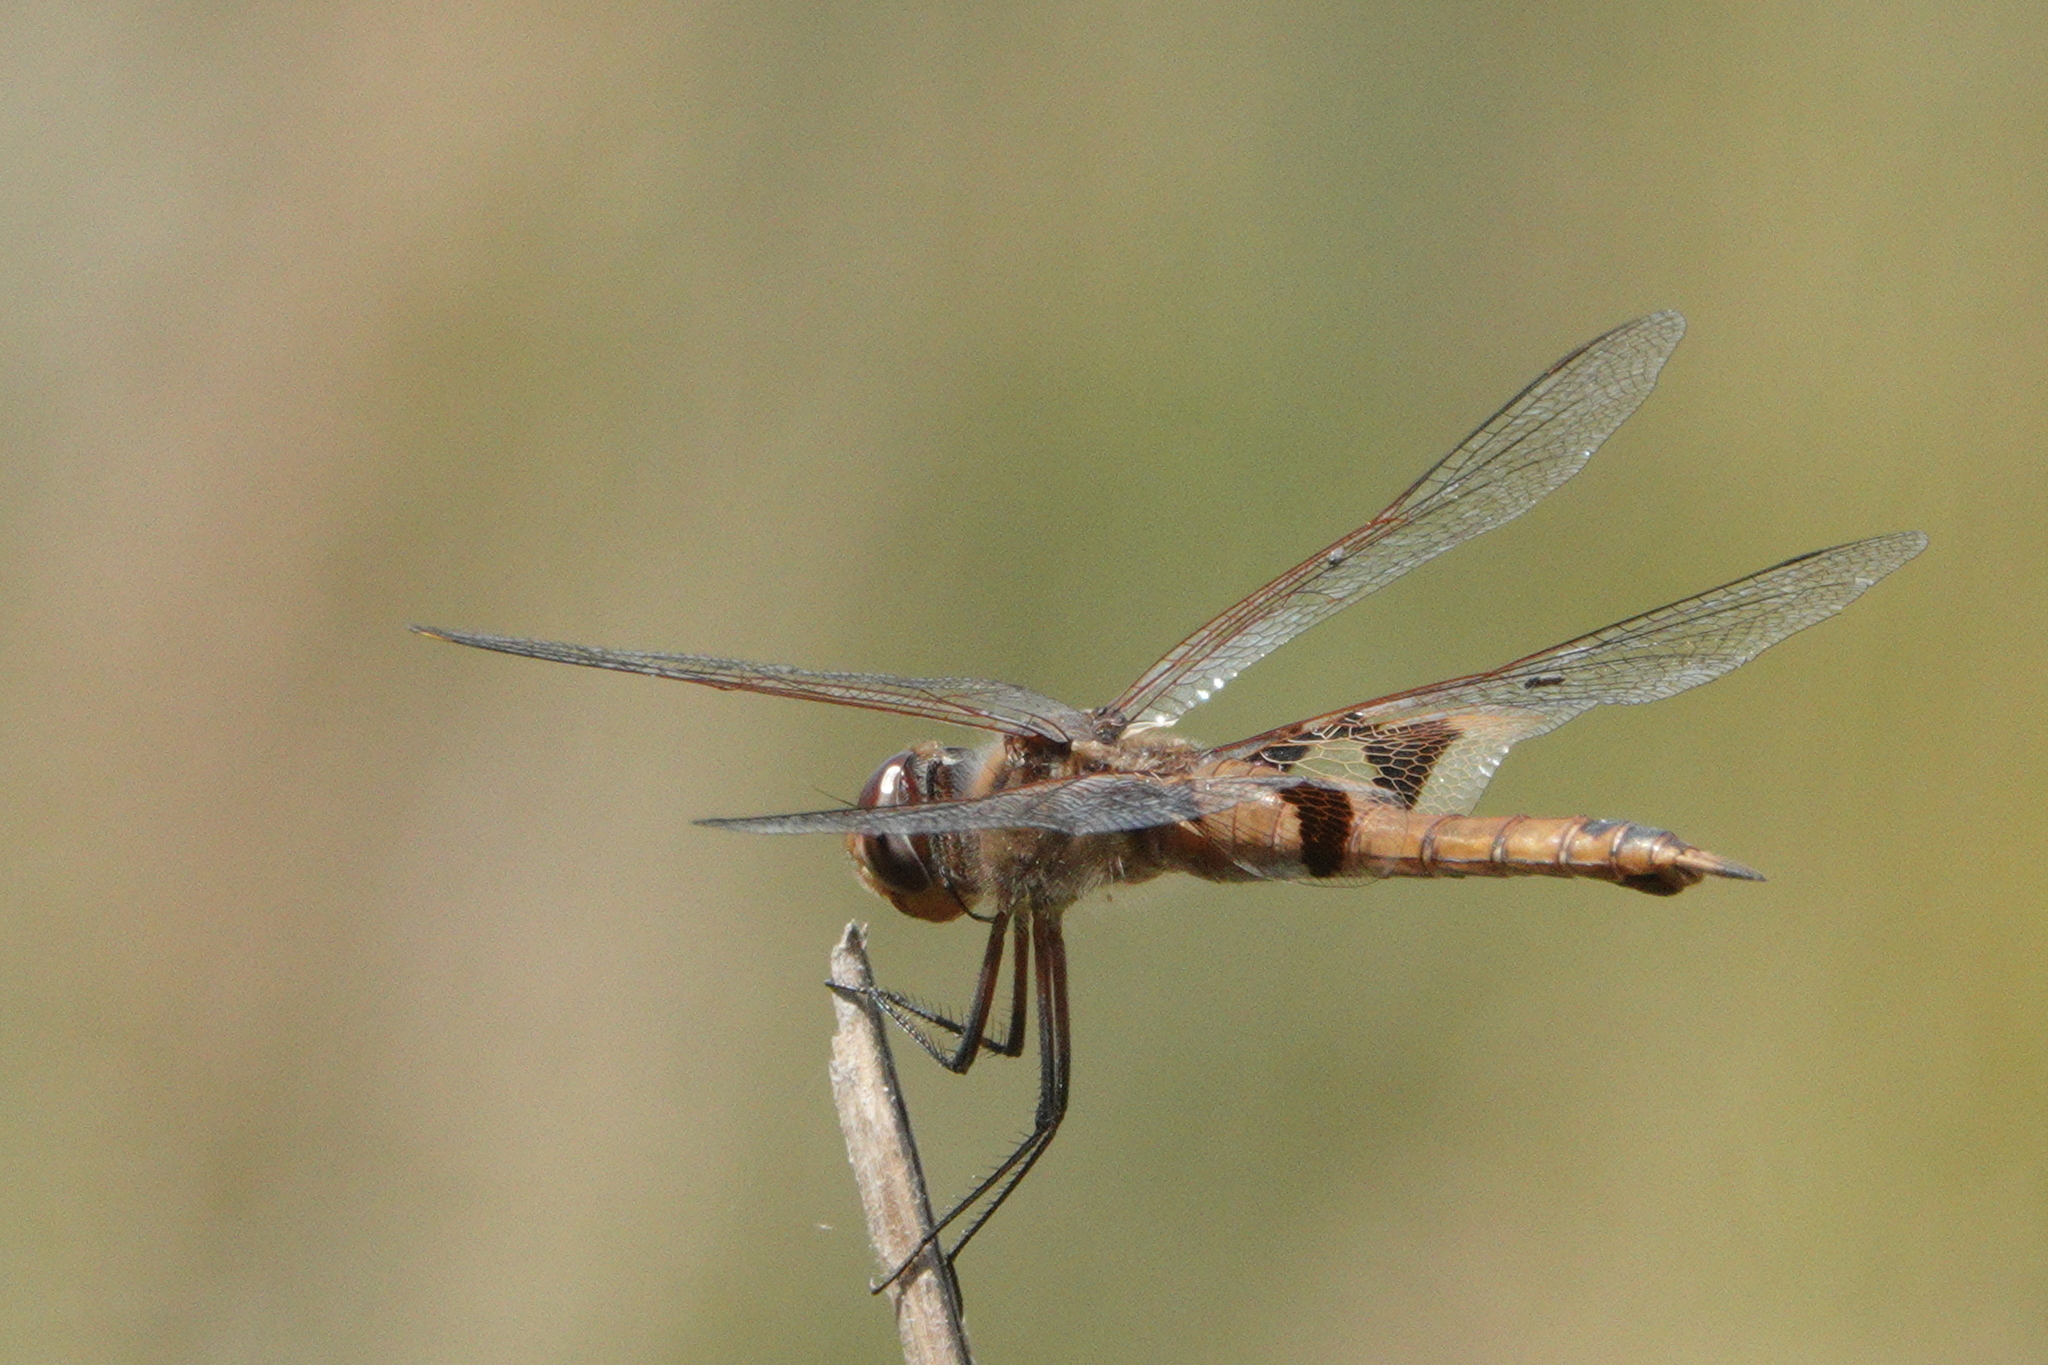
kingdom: Animalia
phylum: Arthropoda
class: Insecta
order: Odonata
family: Libellulidae
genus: Tramea
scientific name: Tramea onusta
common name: Red saddlebags
